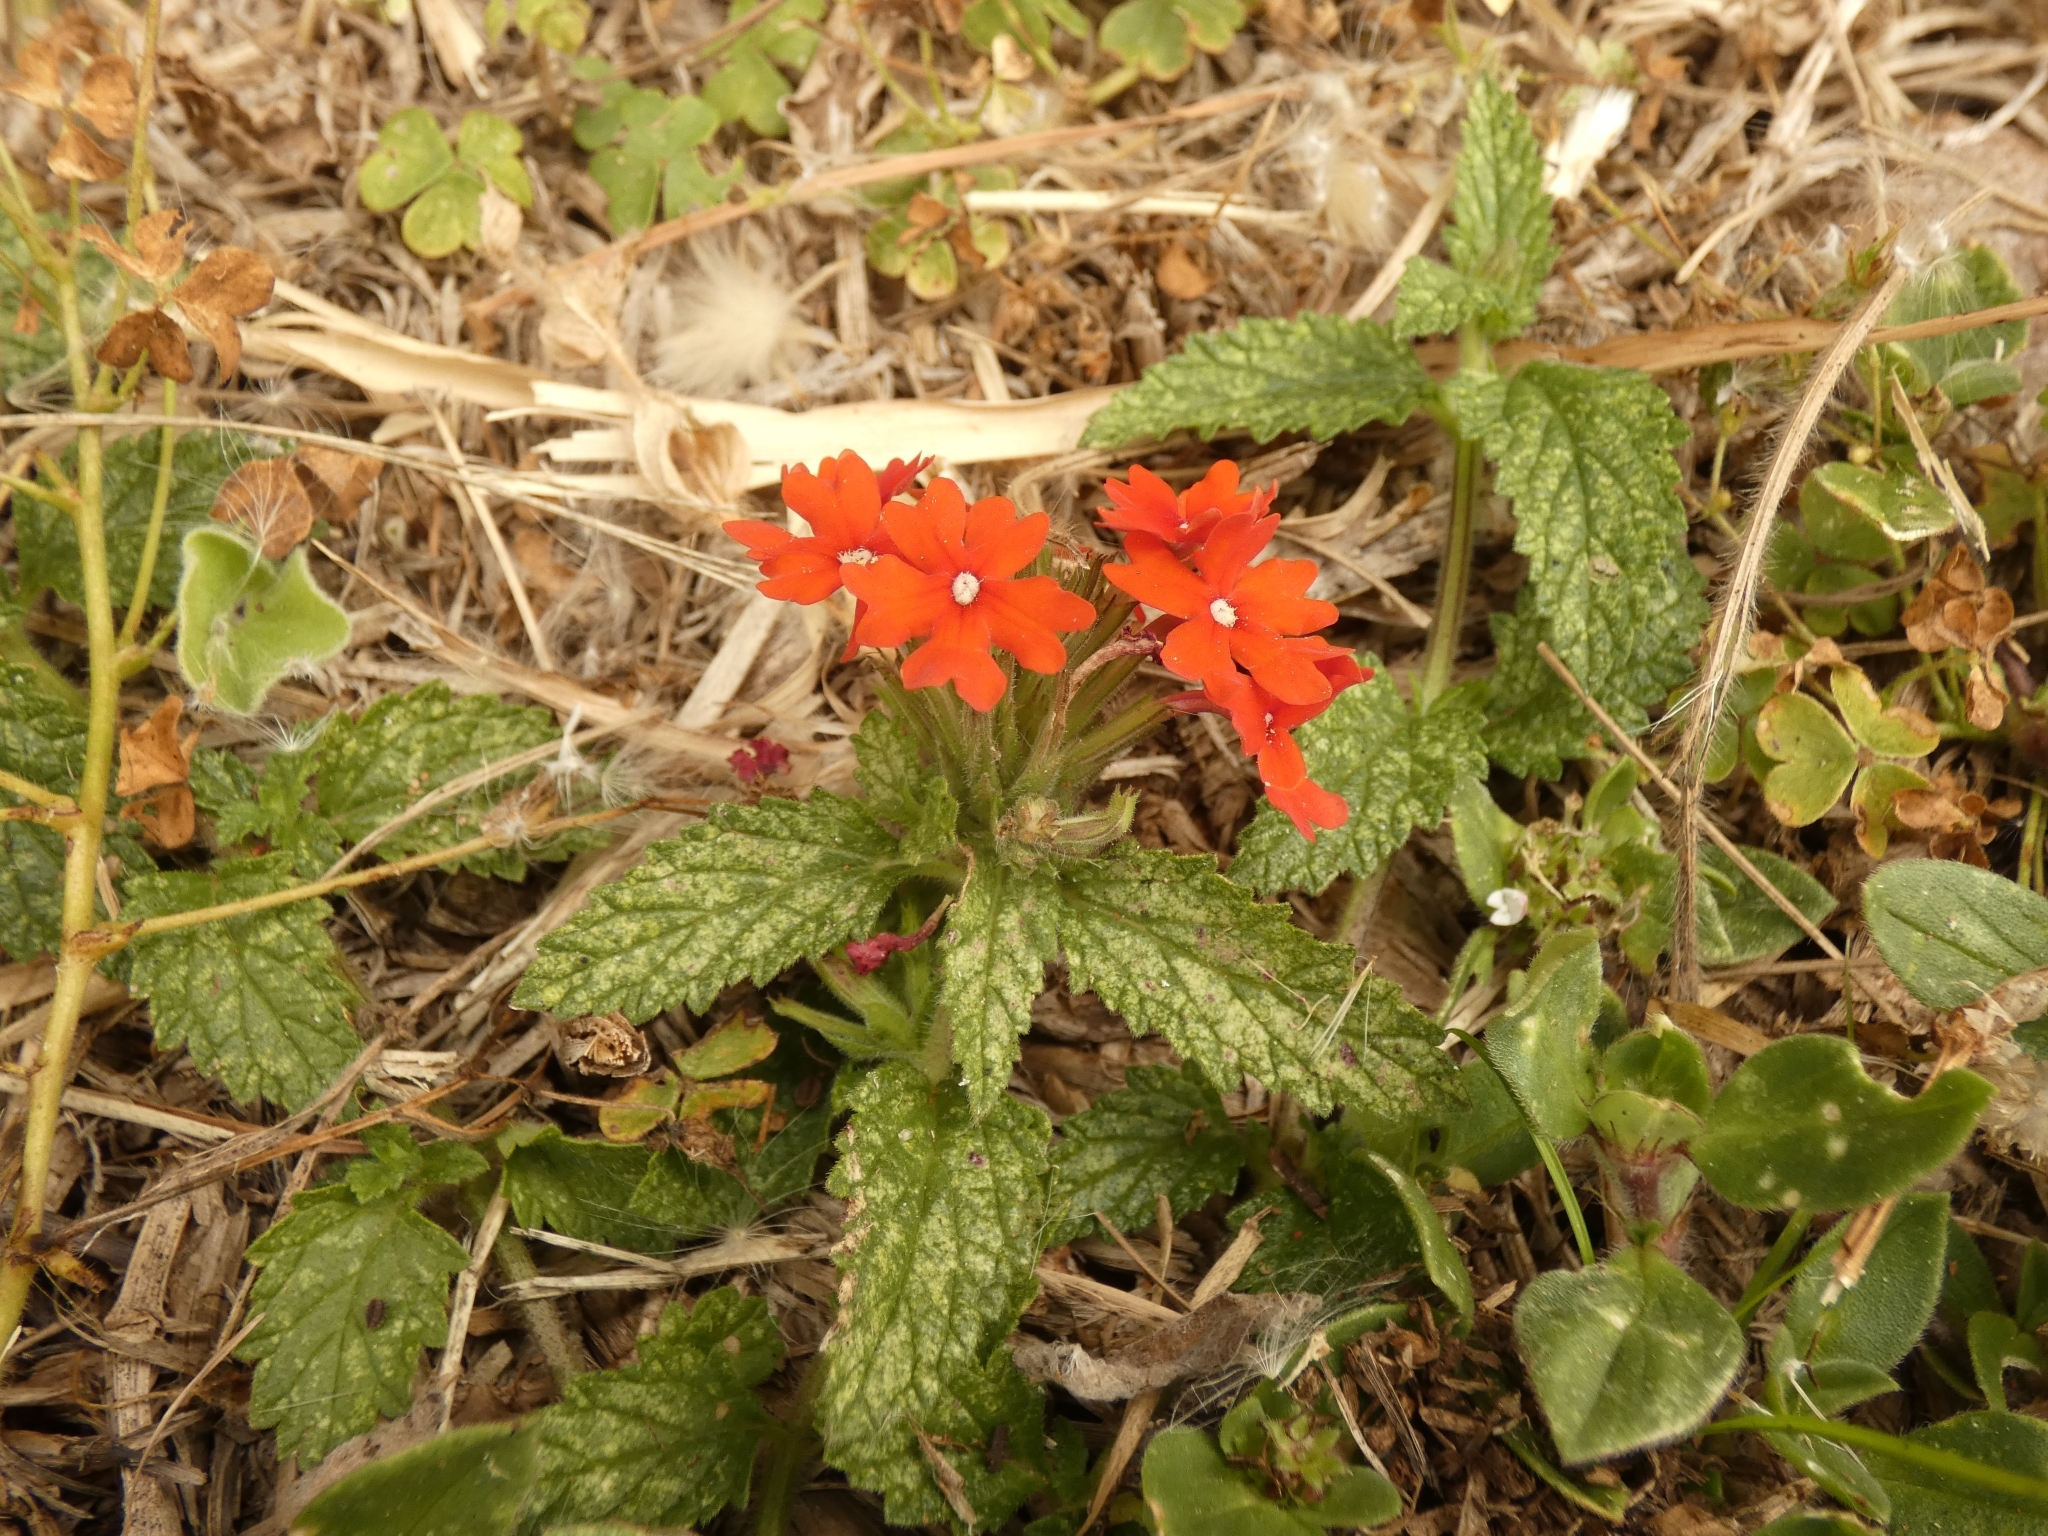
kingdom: Plantae
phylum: Tracheophyta
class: Magnoliopsida
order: Lamiales
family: Verbenaceae
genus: Verbena
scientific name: Verbena peruviana
